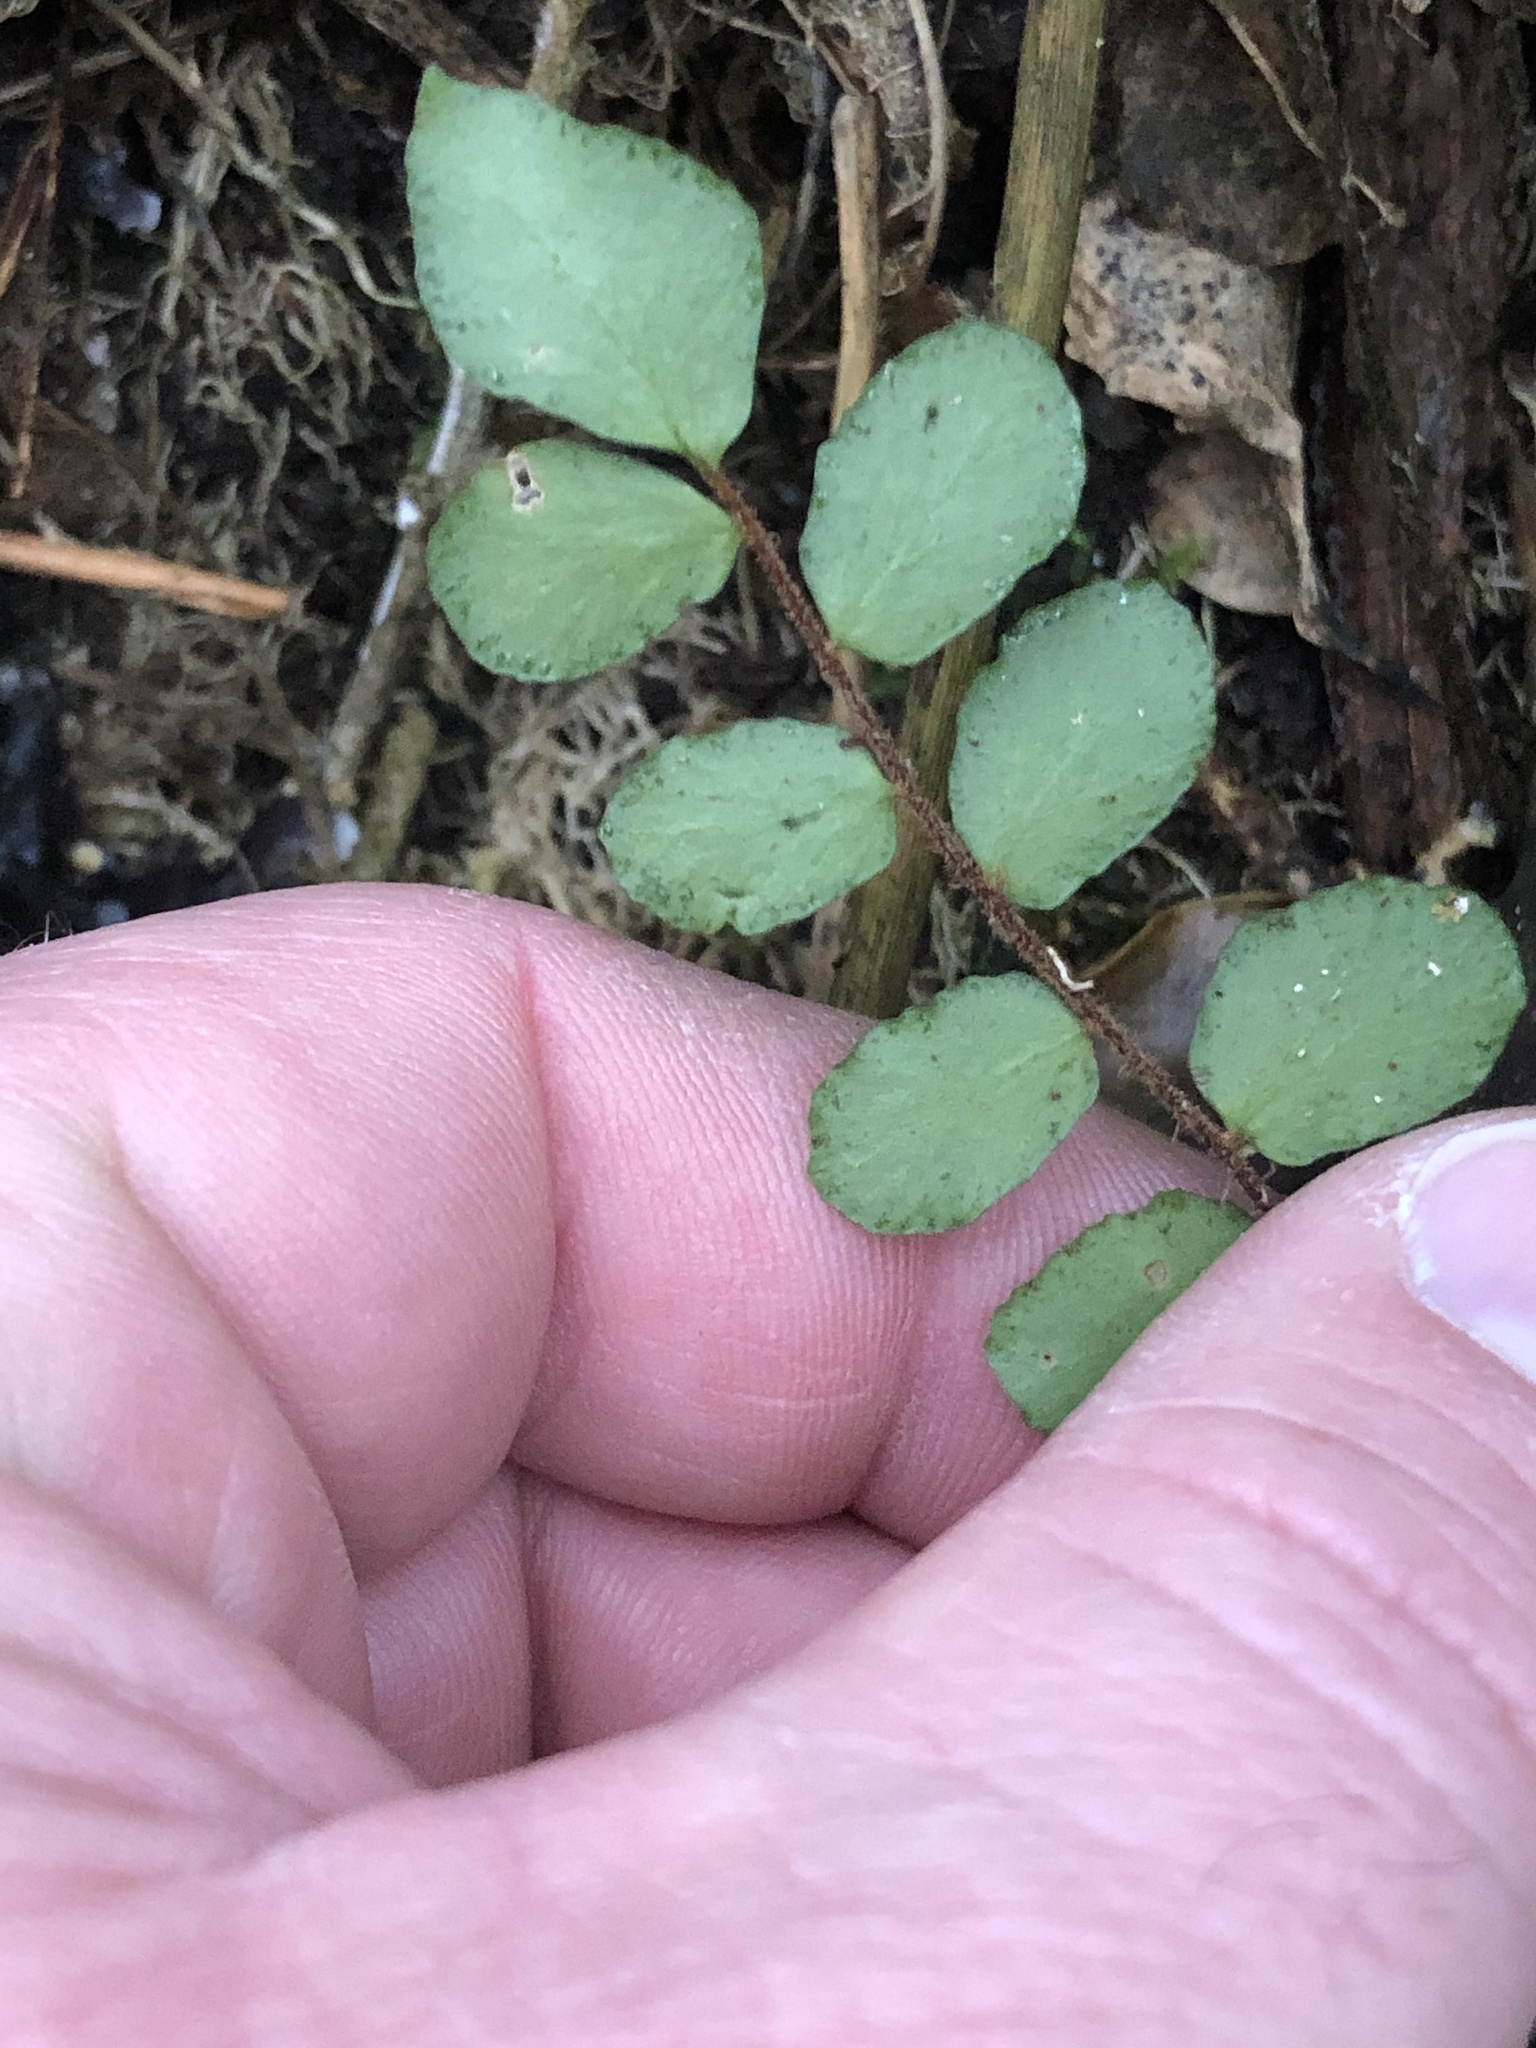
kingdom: Plantae
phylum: Tracheophyta
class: Polypodiopsida
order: Polypodiales
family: Pteridaceae
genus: Pellaea
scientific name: Pellaea rotundifolia
